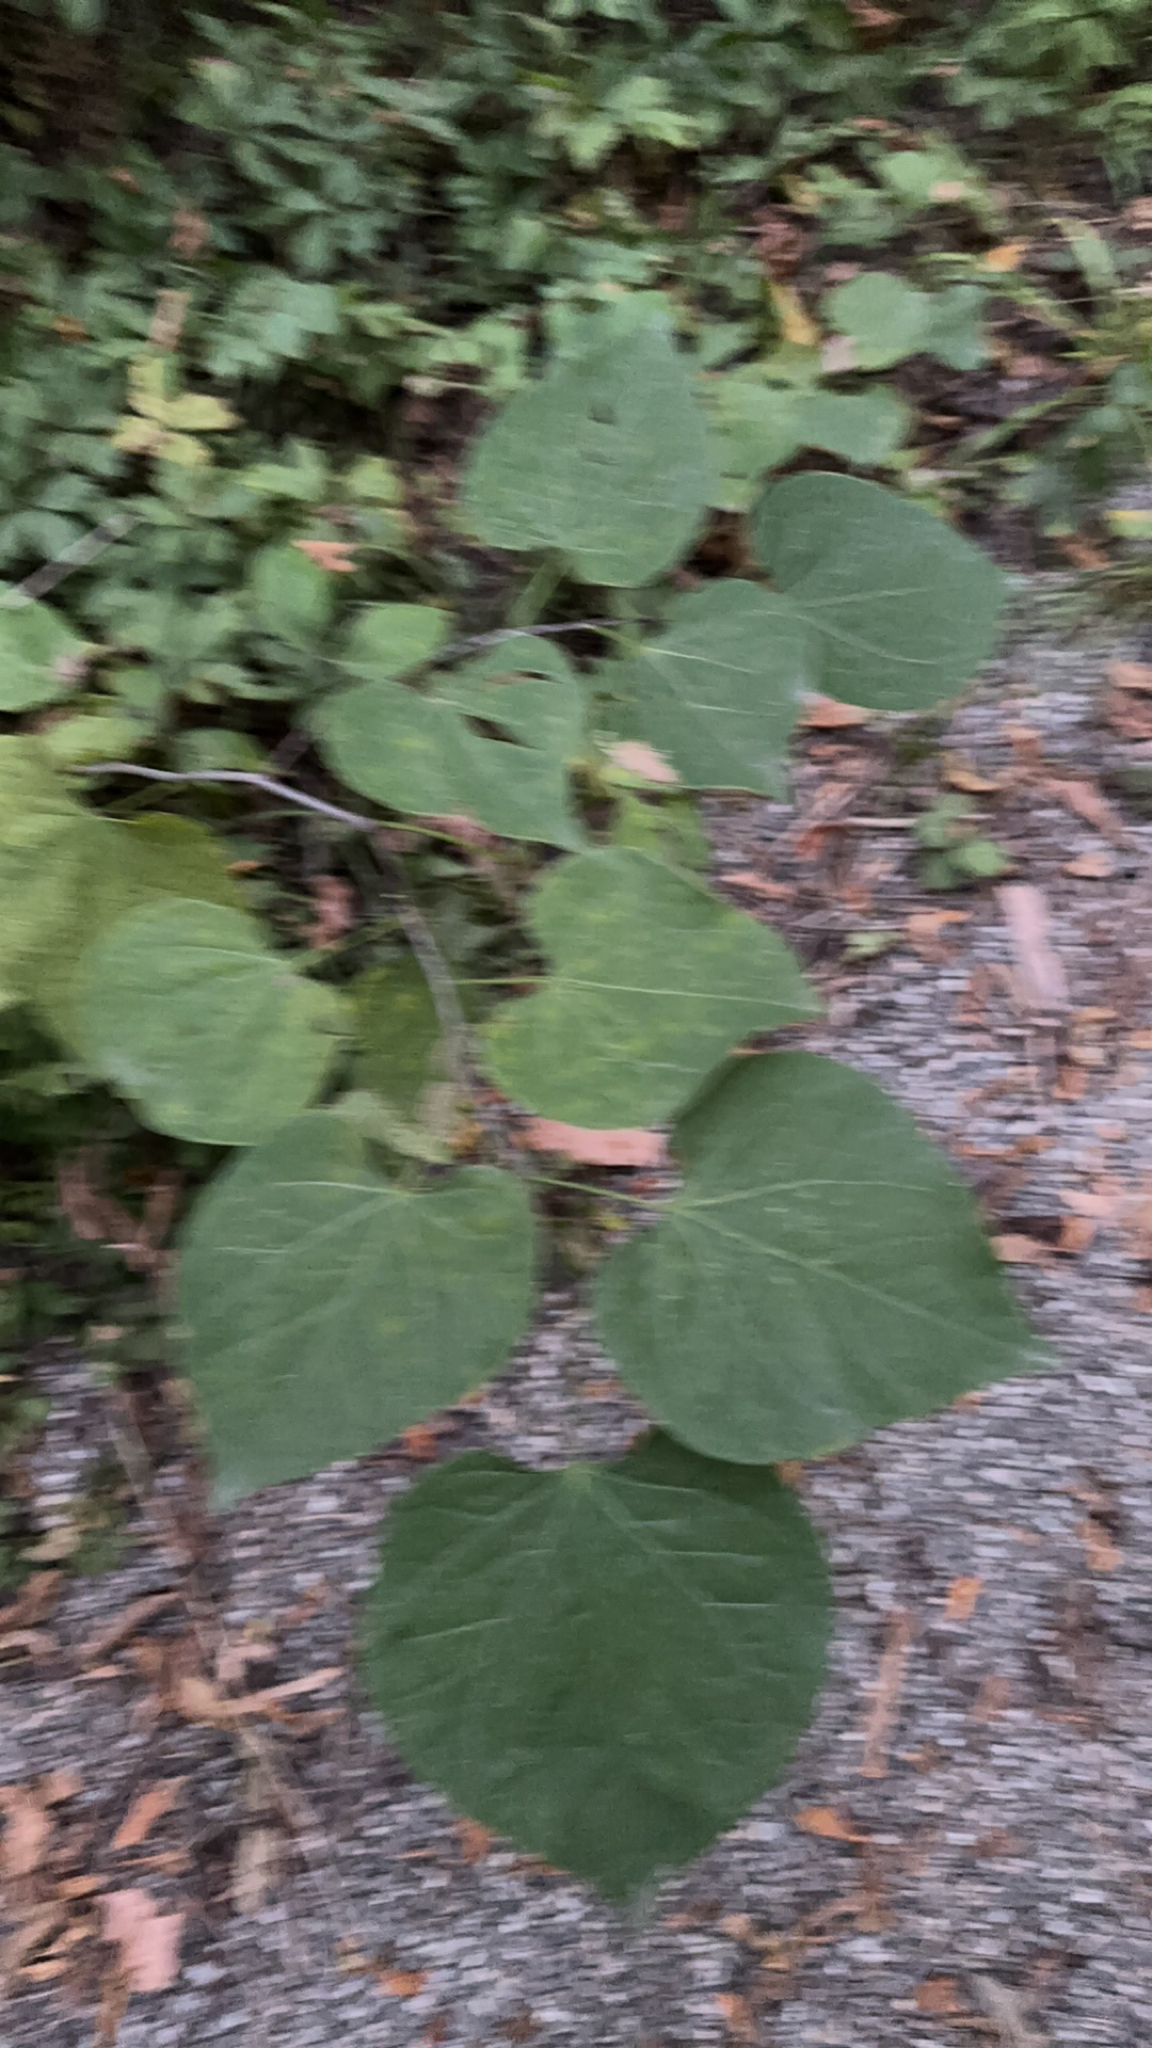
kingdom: Plantae
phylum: Tracheophyta
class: Magnoliopsida
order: Fabales
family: Fabaceae
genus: Cercis
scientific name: Cercis canadensis
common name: Eastern redbud
